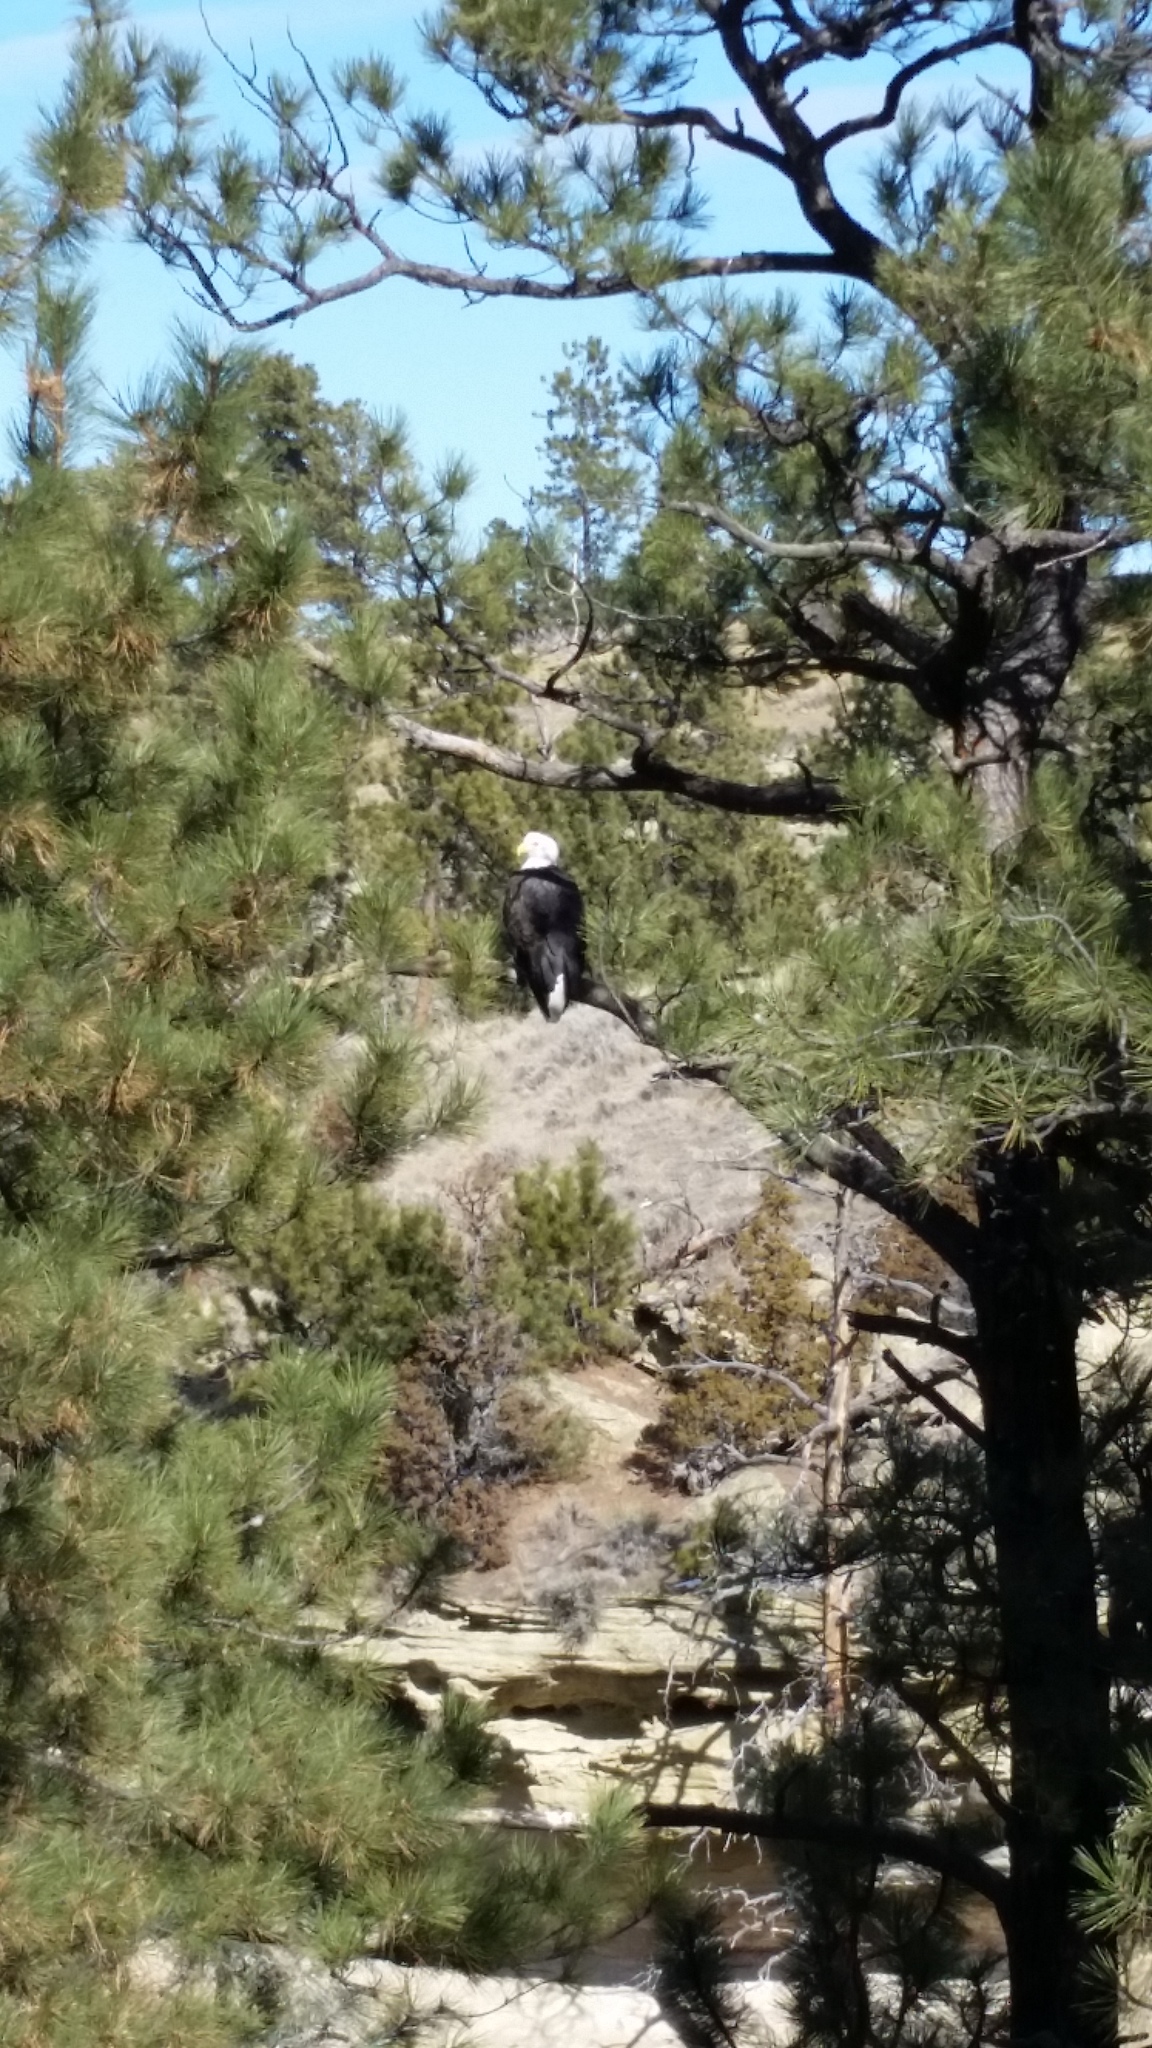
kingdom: Animalia
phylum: Chordata
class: Aves
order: Accipitriformes
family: Accipitridae
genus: Haliaeetus
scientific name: Haliaeetus leucocephalus
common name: Bald eagle
